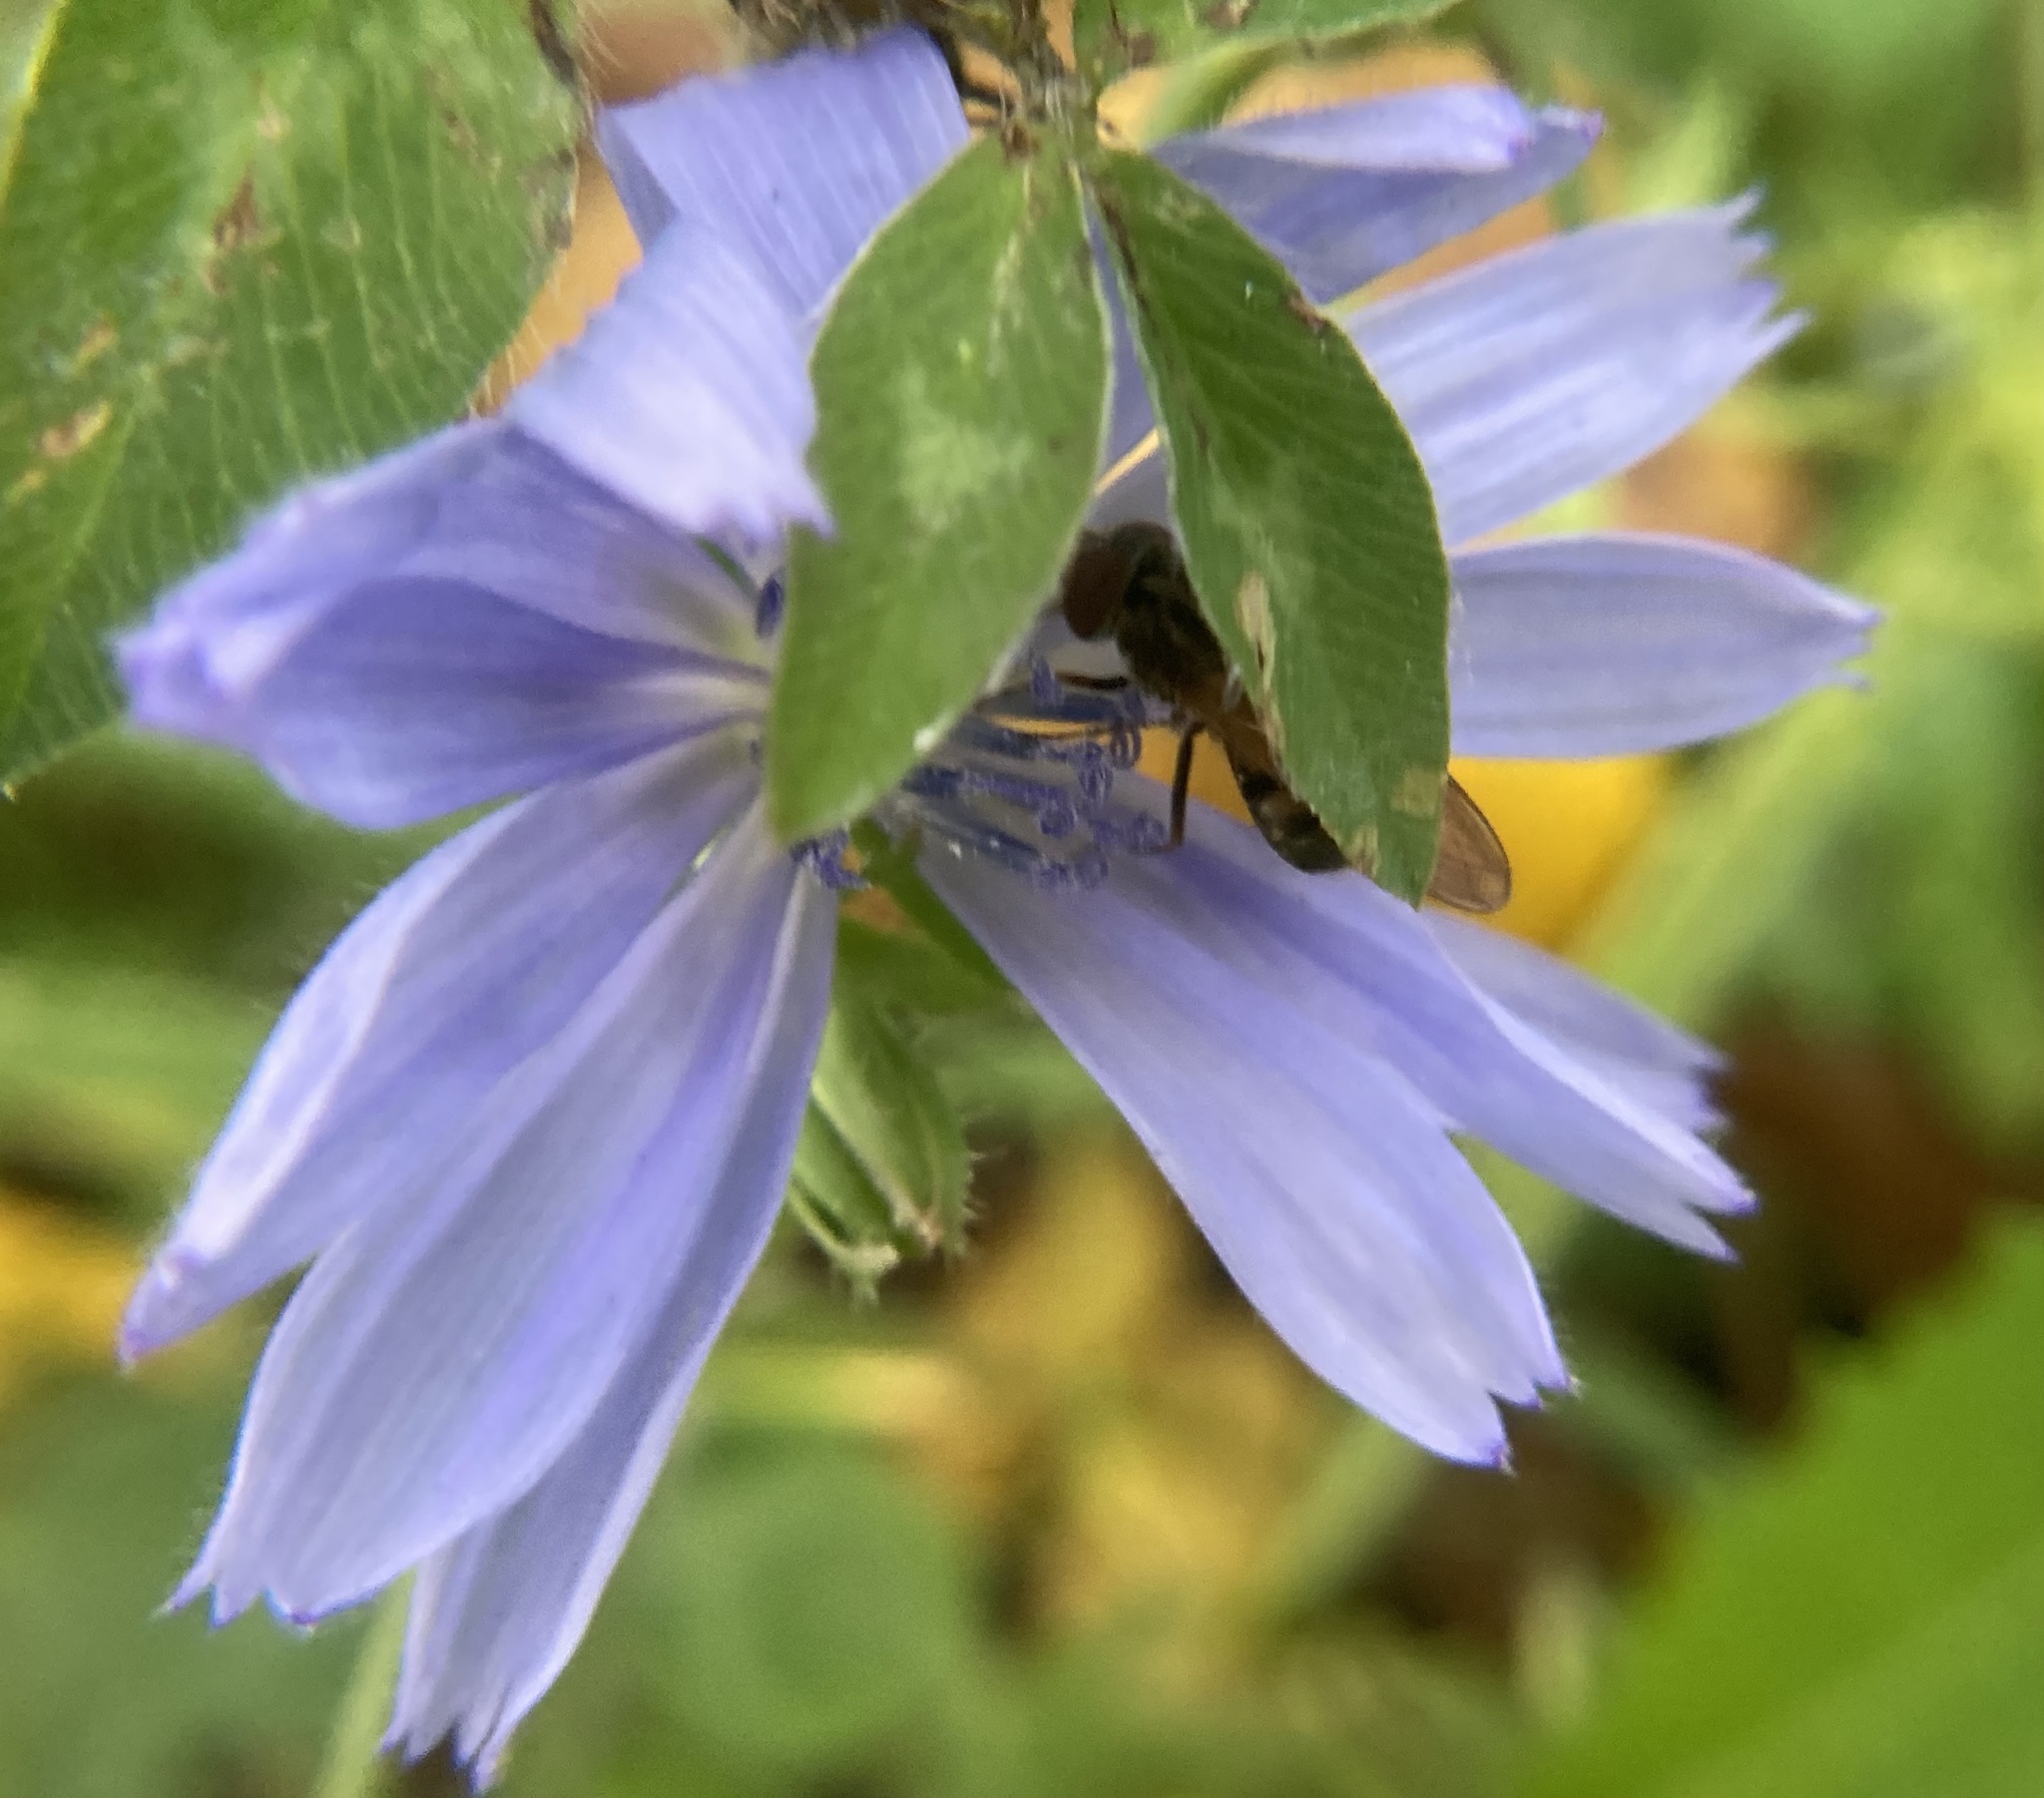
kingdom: Animalia
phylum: Arthropoda
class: Insecta
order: Diptera
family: Syrphidae
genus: Rhingia
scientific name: Rhingia nasica
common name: American snout fly
